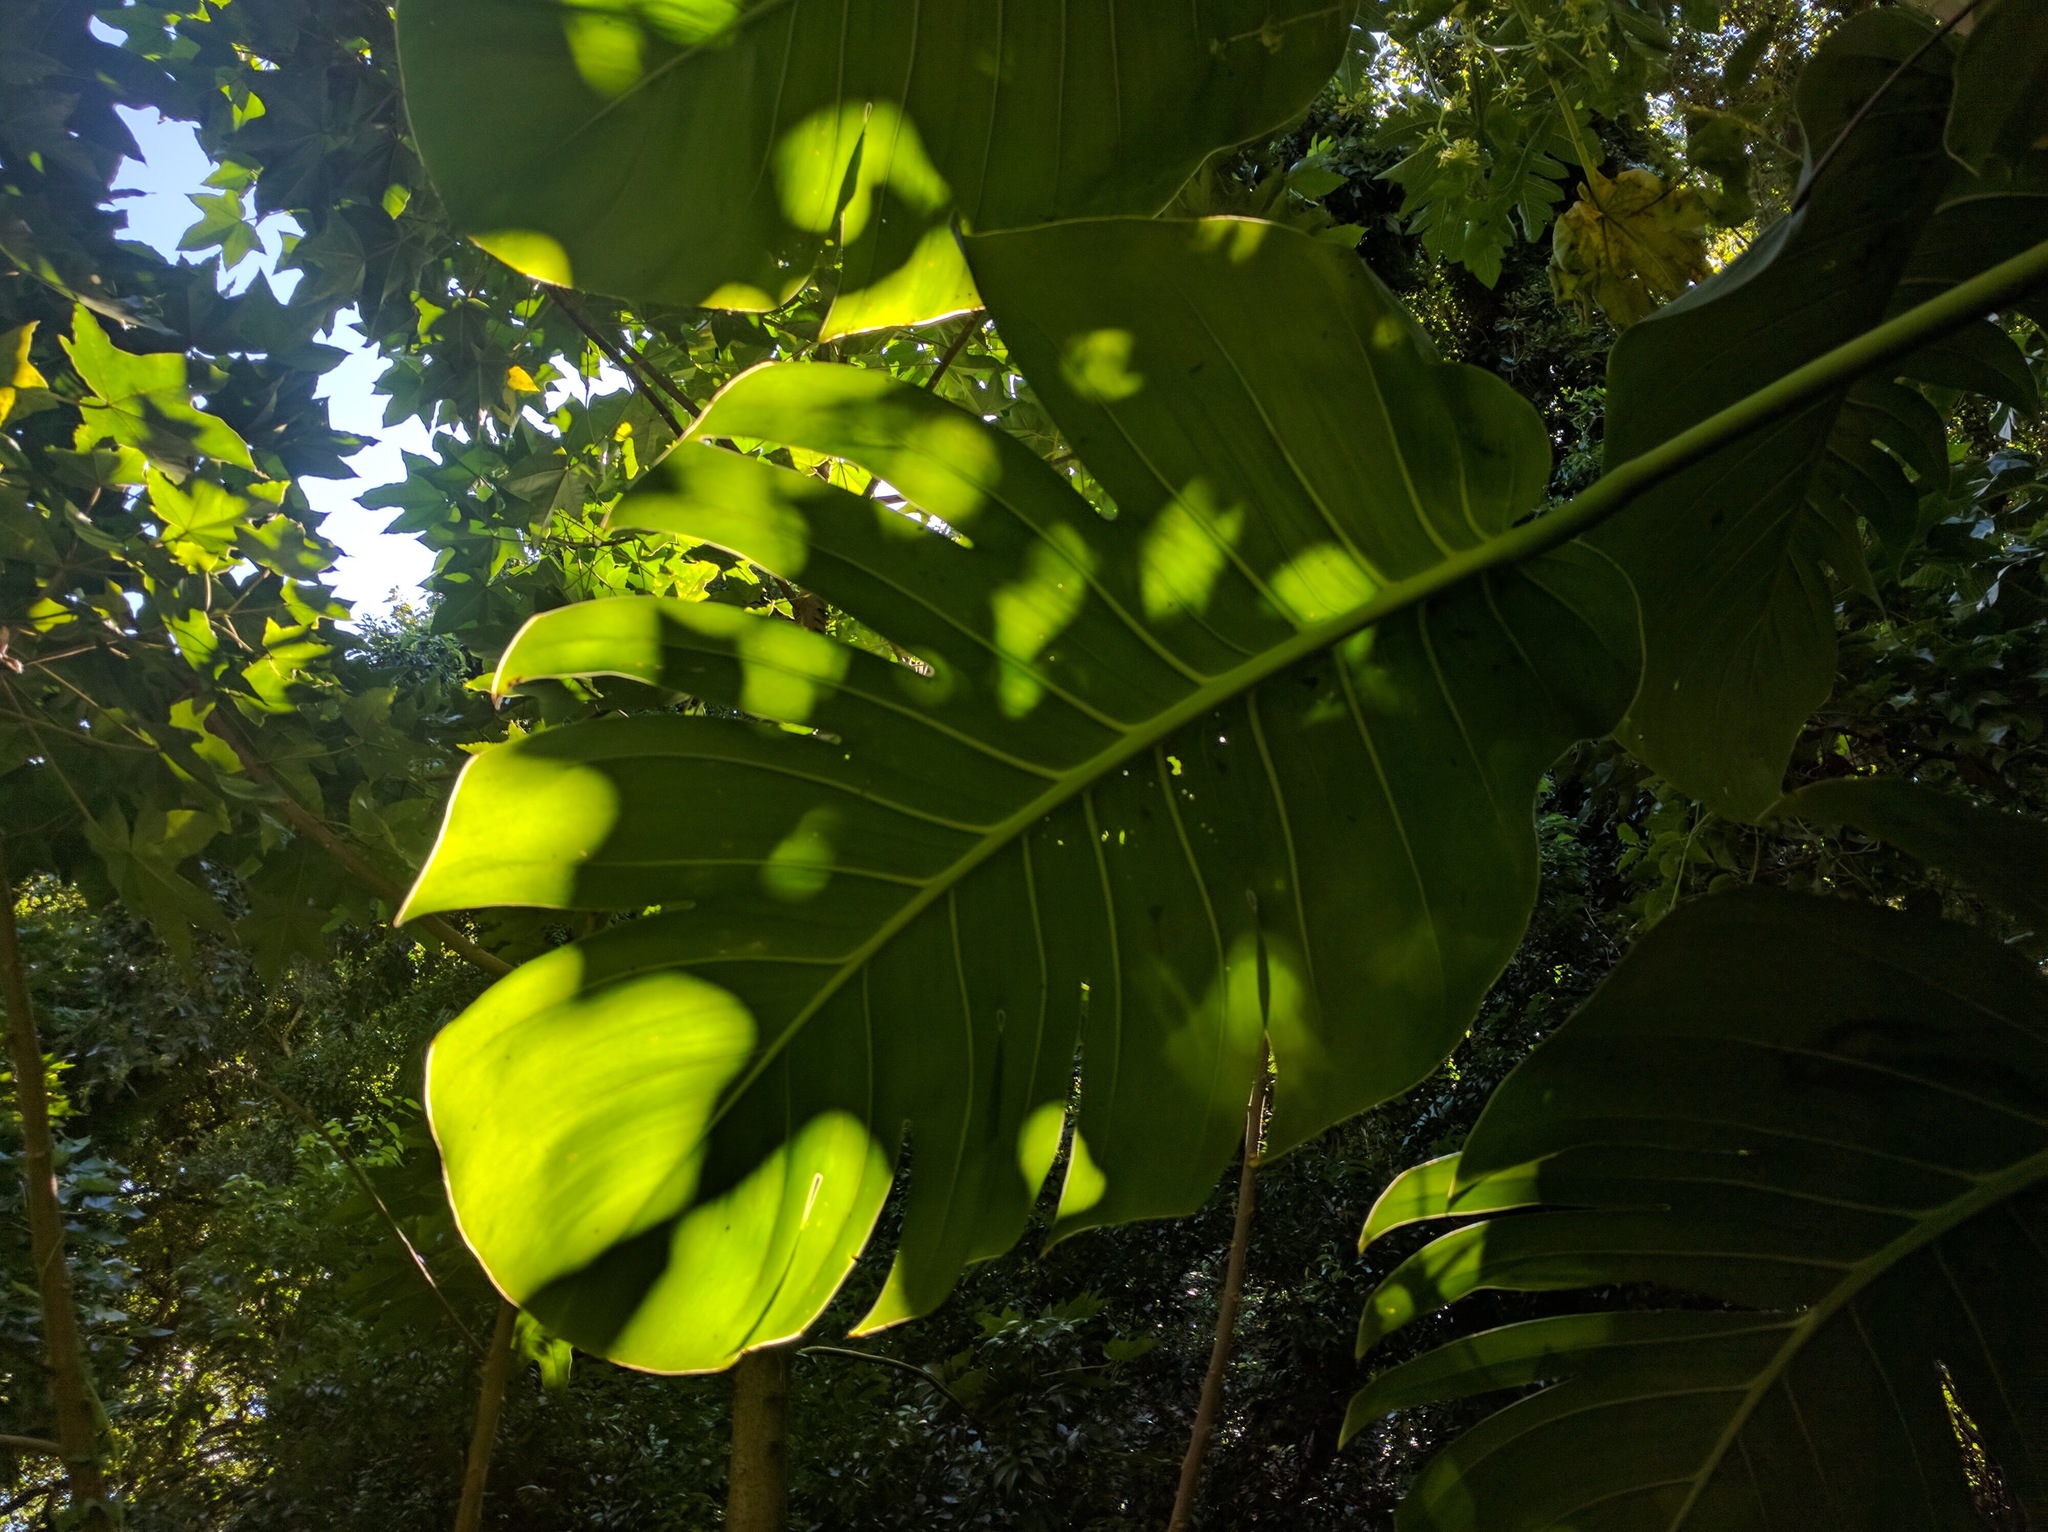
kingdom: Plantae
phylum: Tracheophyta
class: Liliopsida
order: Alismatales
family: Araceae
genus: Epipremnum
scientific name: Epipremnum aureum
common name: Golden hunter's-robe
